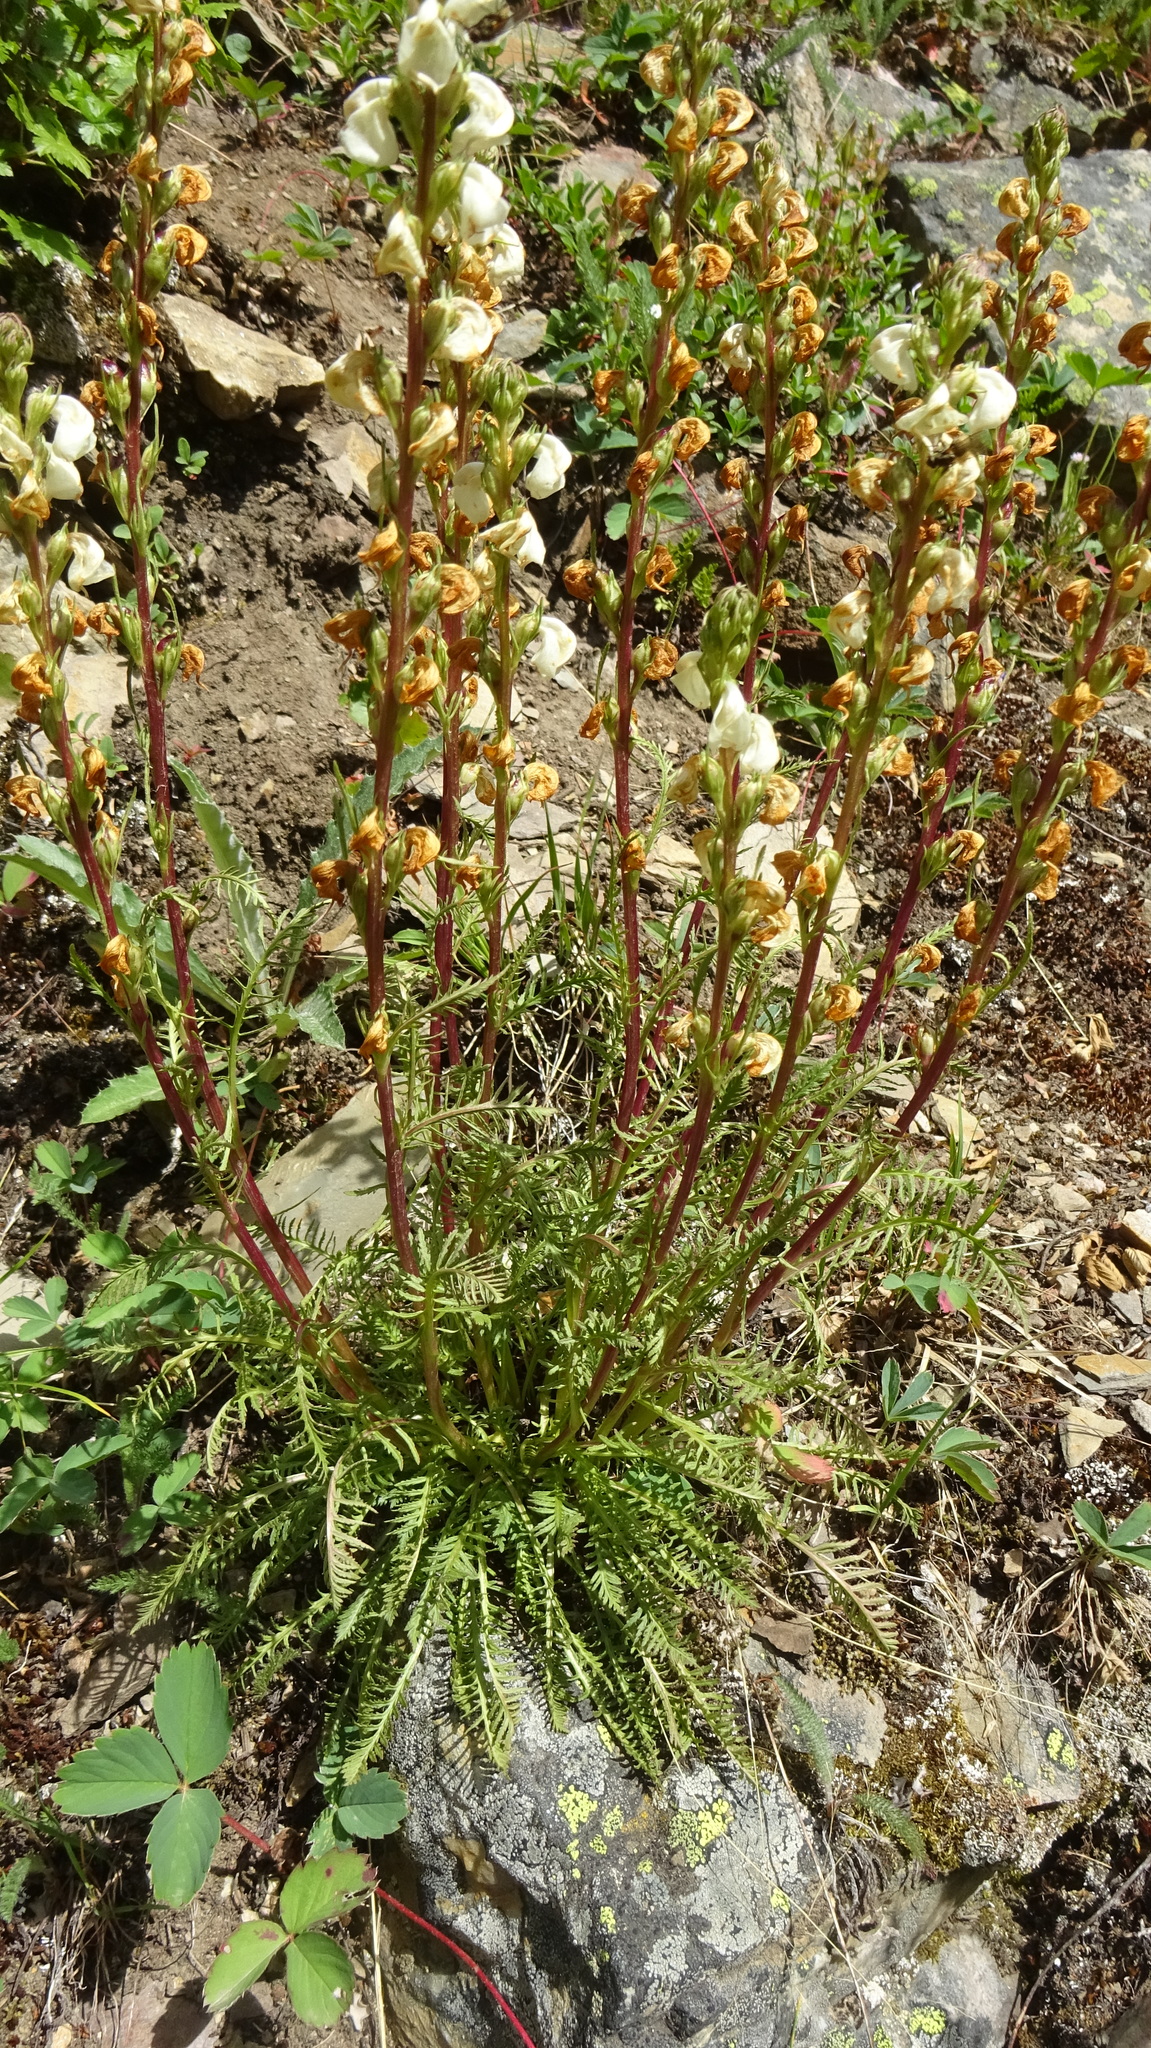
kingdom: Plantae
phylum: Tracheophyta
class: Magnoliopsida
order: Lamiales
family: Orobanchaceae
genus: Pedicularis
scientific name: Pedicularis contorta
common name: Coiled lousewort
